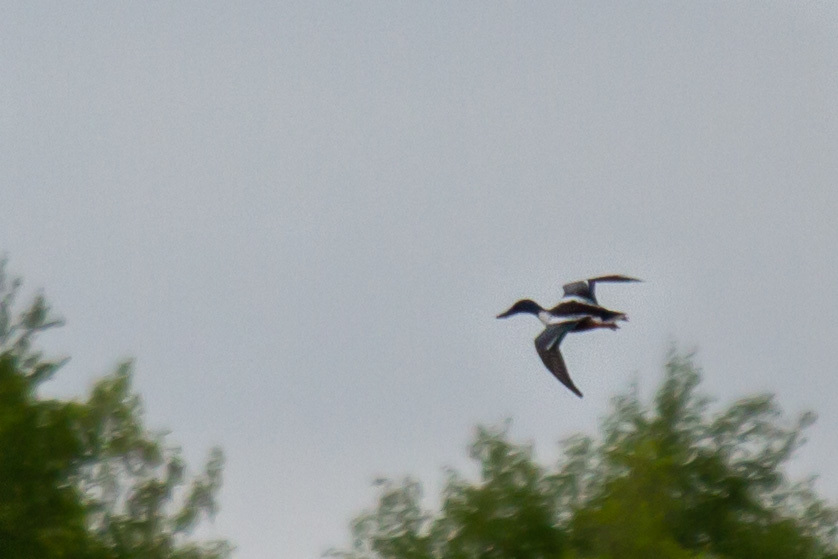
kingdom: Animalia
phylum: Chordata
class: Aves
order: Anseriformes
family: Anatidae
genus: Spatula
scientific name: Spatula clypeata
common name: Northern shoveler
